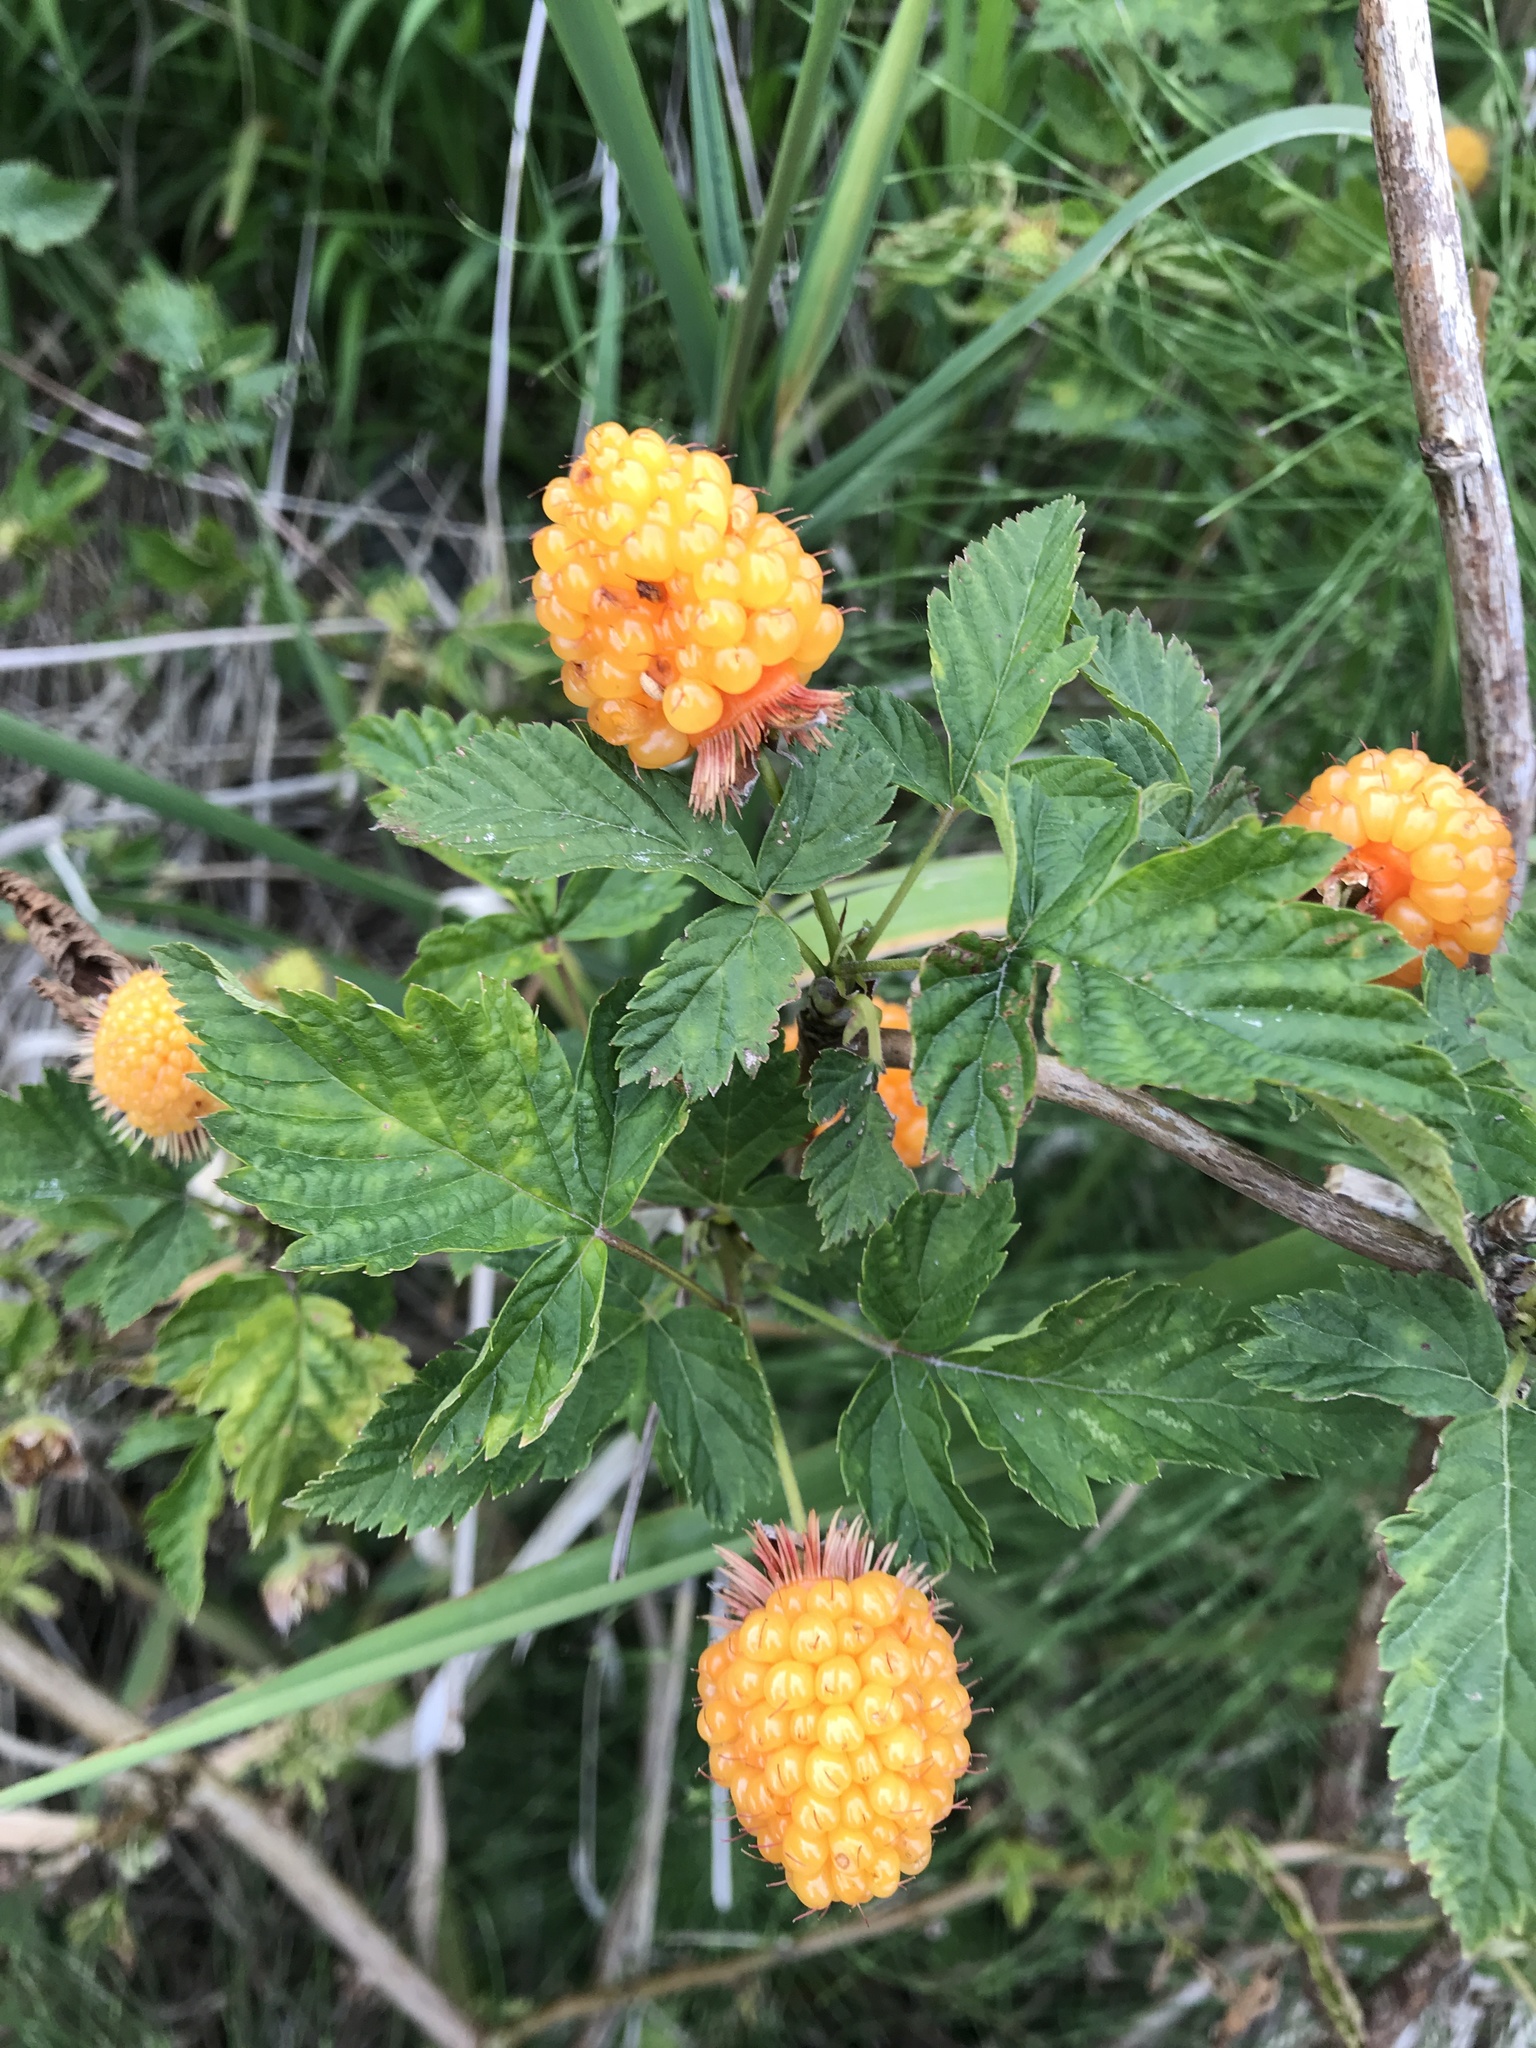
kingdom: Plantae
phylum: Tracheophyta
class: Magnoliopsida
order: Rosales
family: Rosaceae
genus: Rubus
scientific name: Rubus spectabilis
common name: Salmonberry
